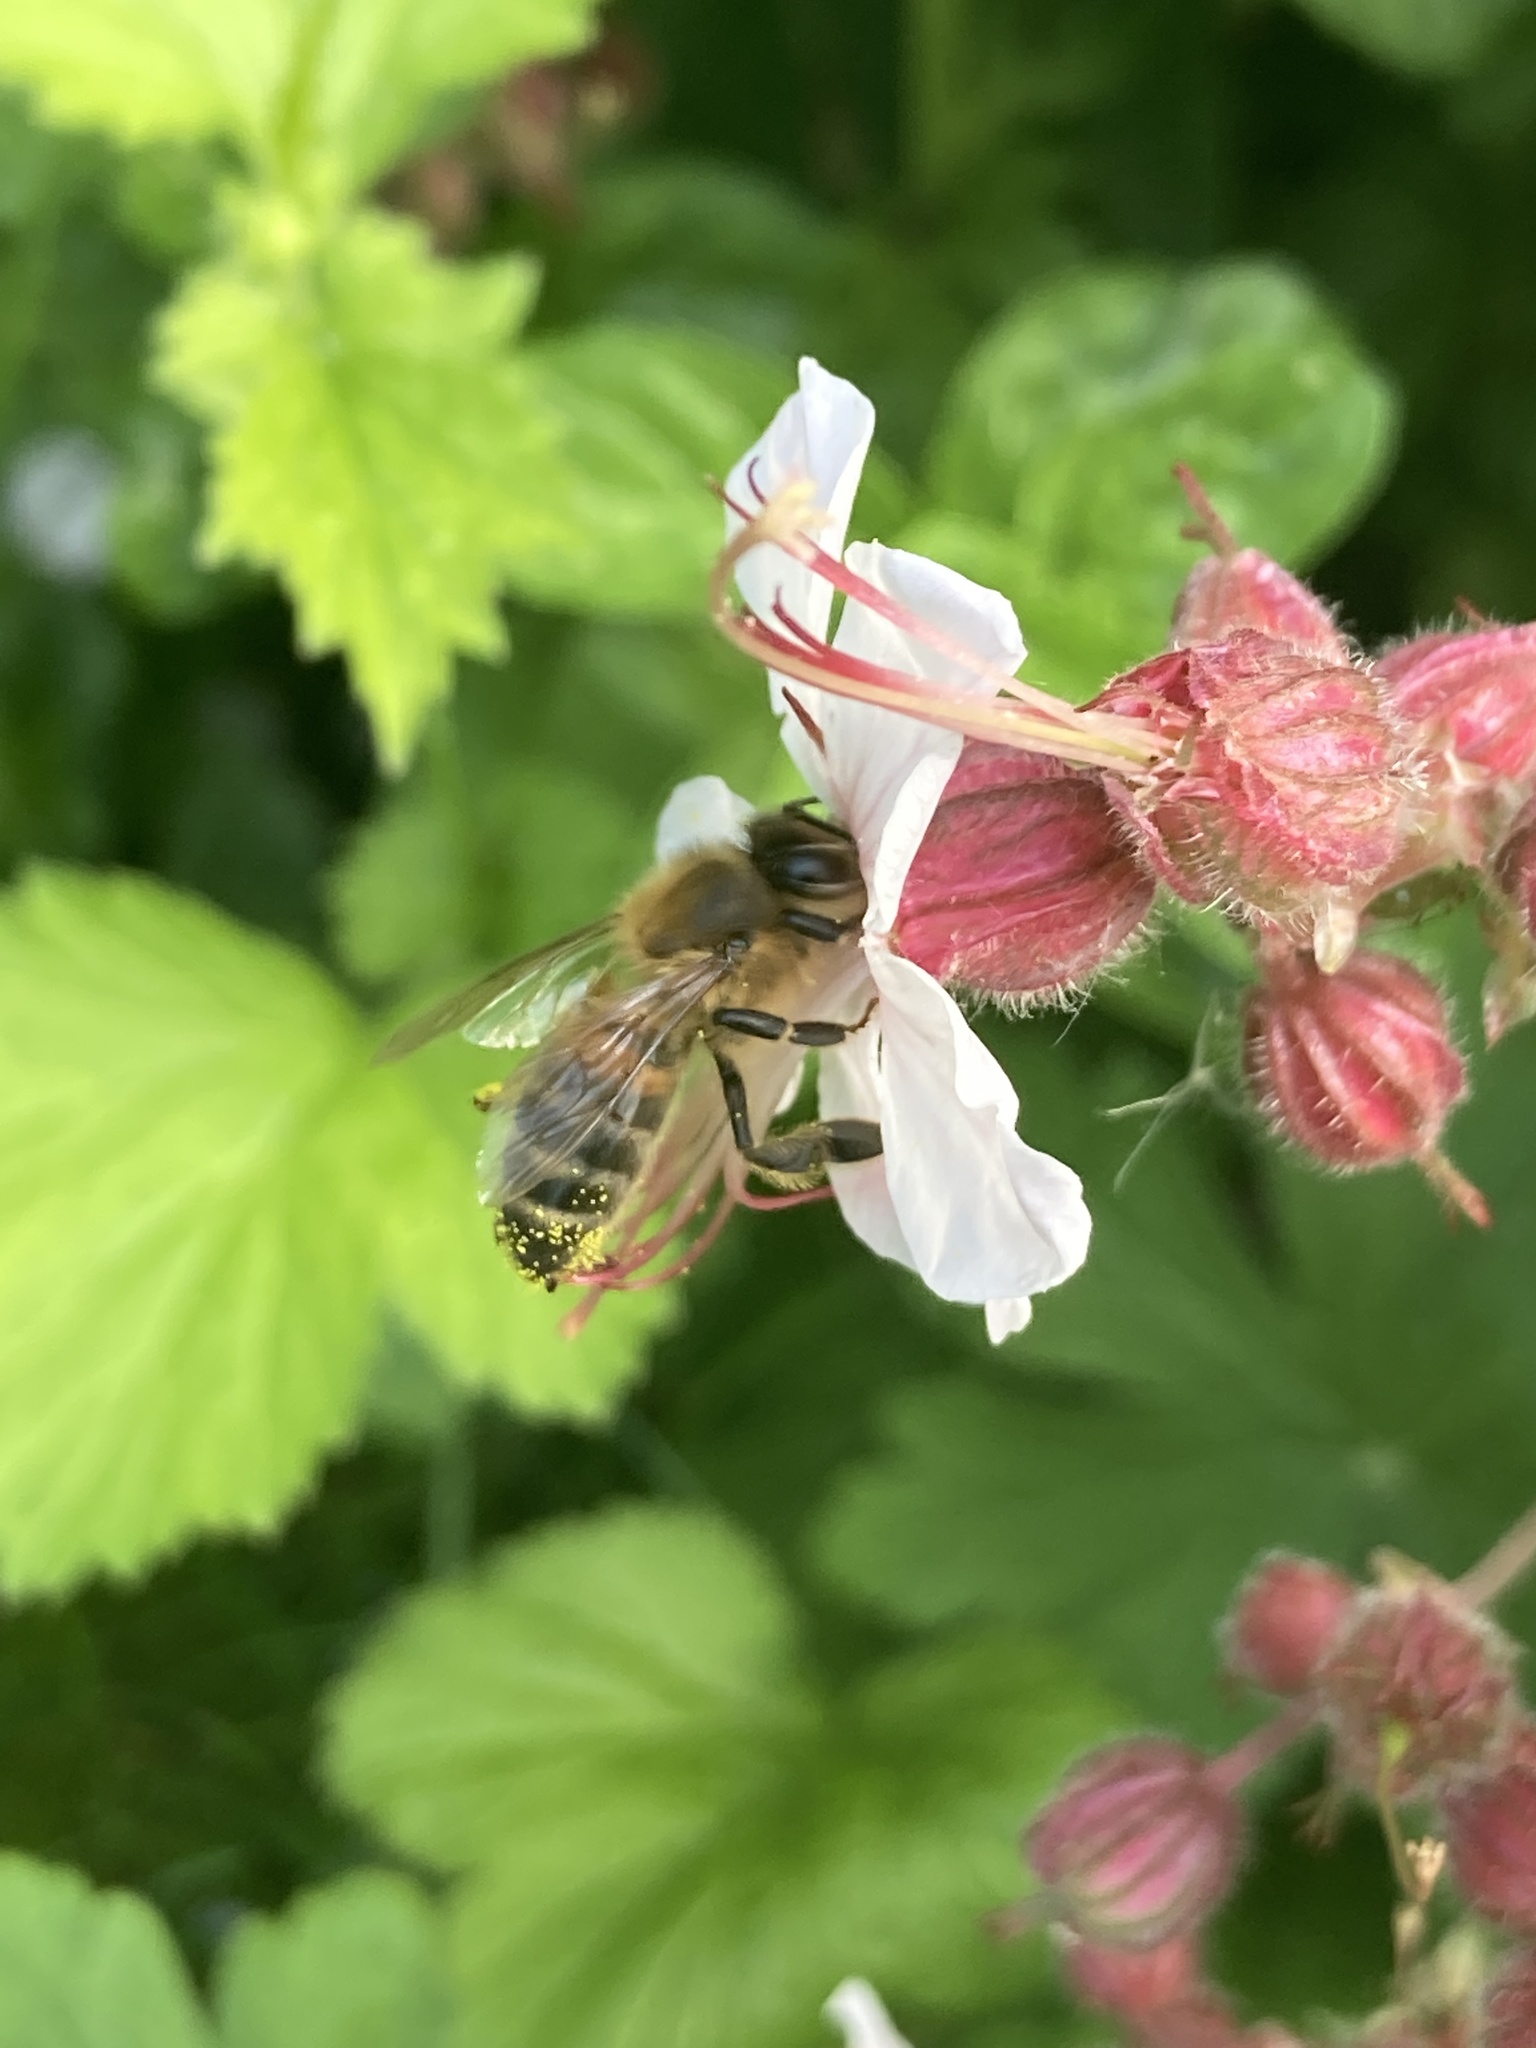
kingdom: Animalia
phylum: Arthropoda
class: Insecta
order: Hymenoptera
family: Apidae
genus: Apis
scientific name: Apis mellifera
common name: Honey bee
